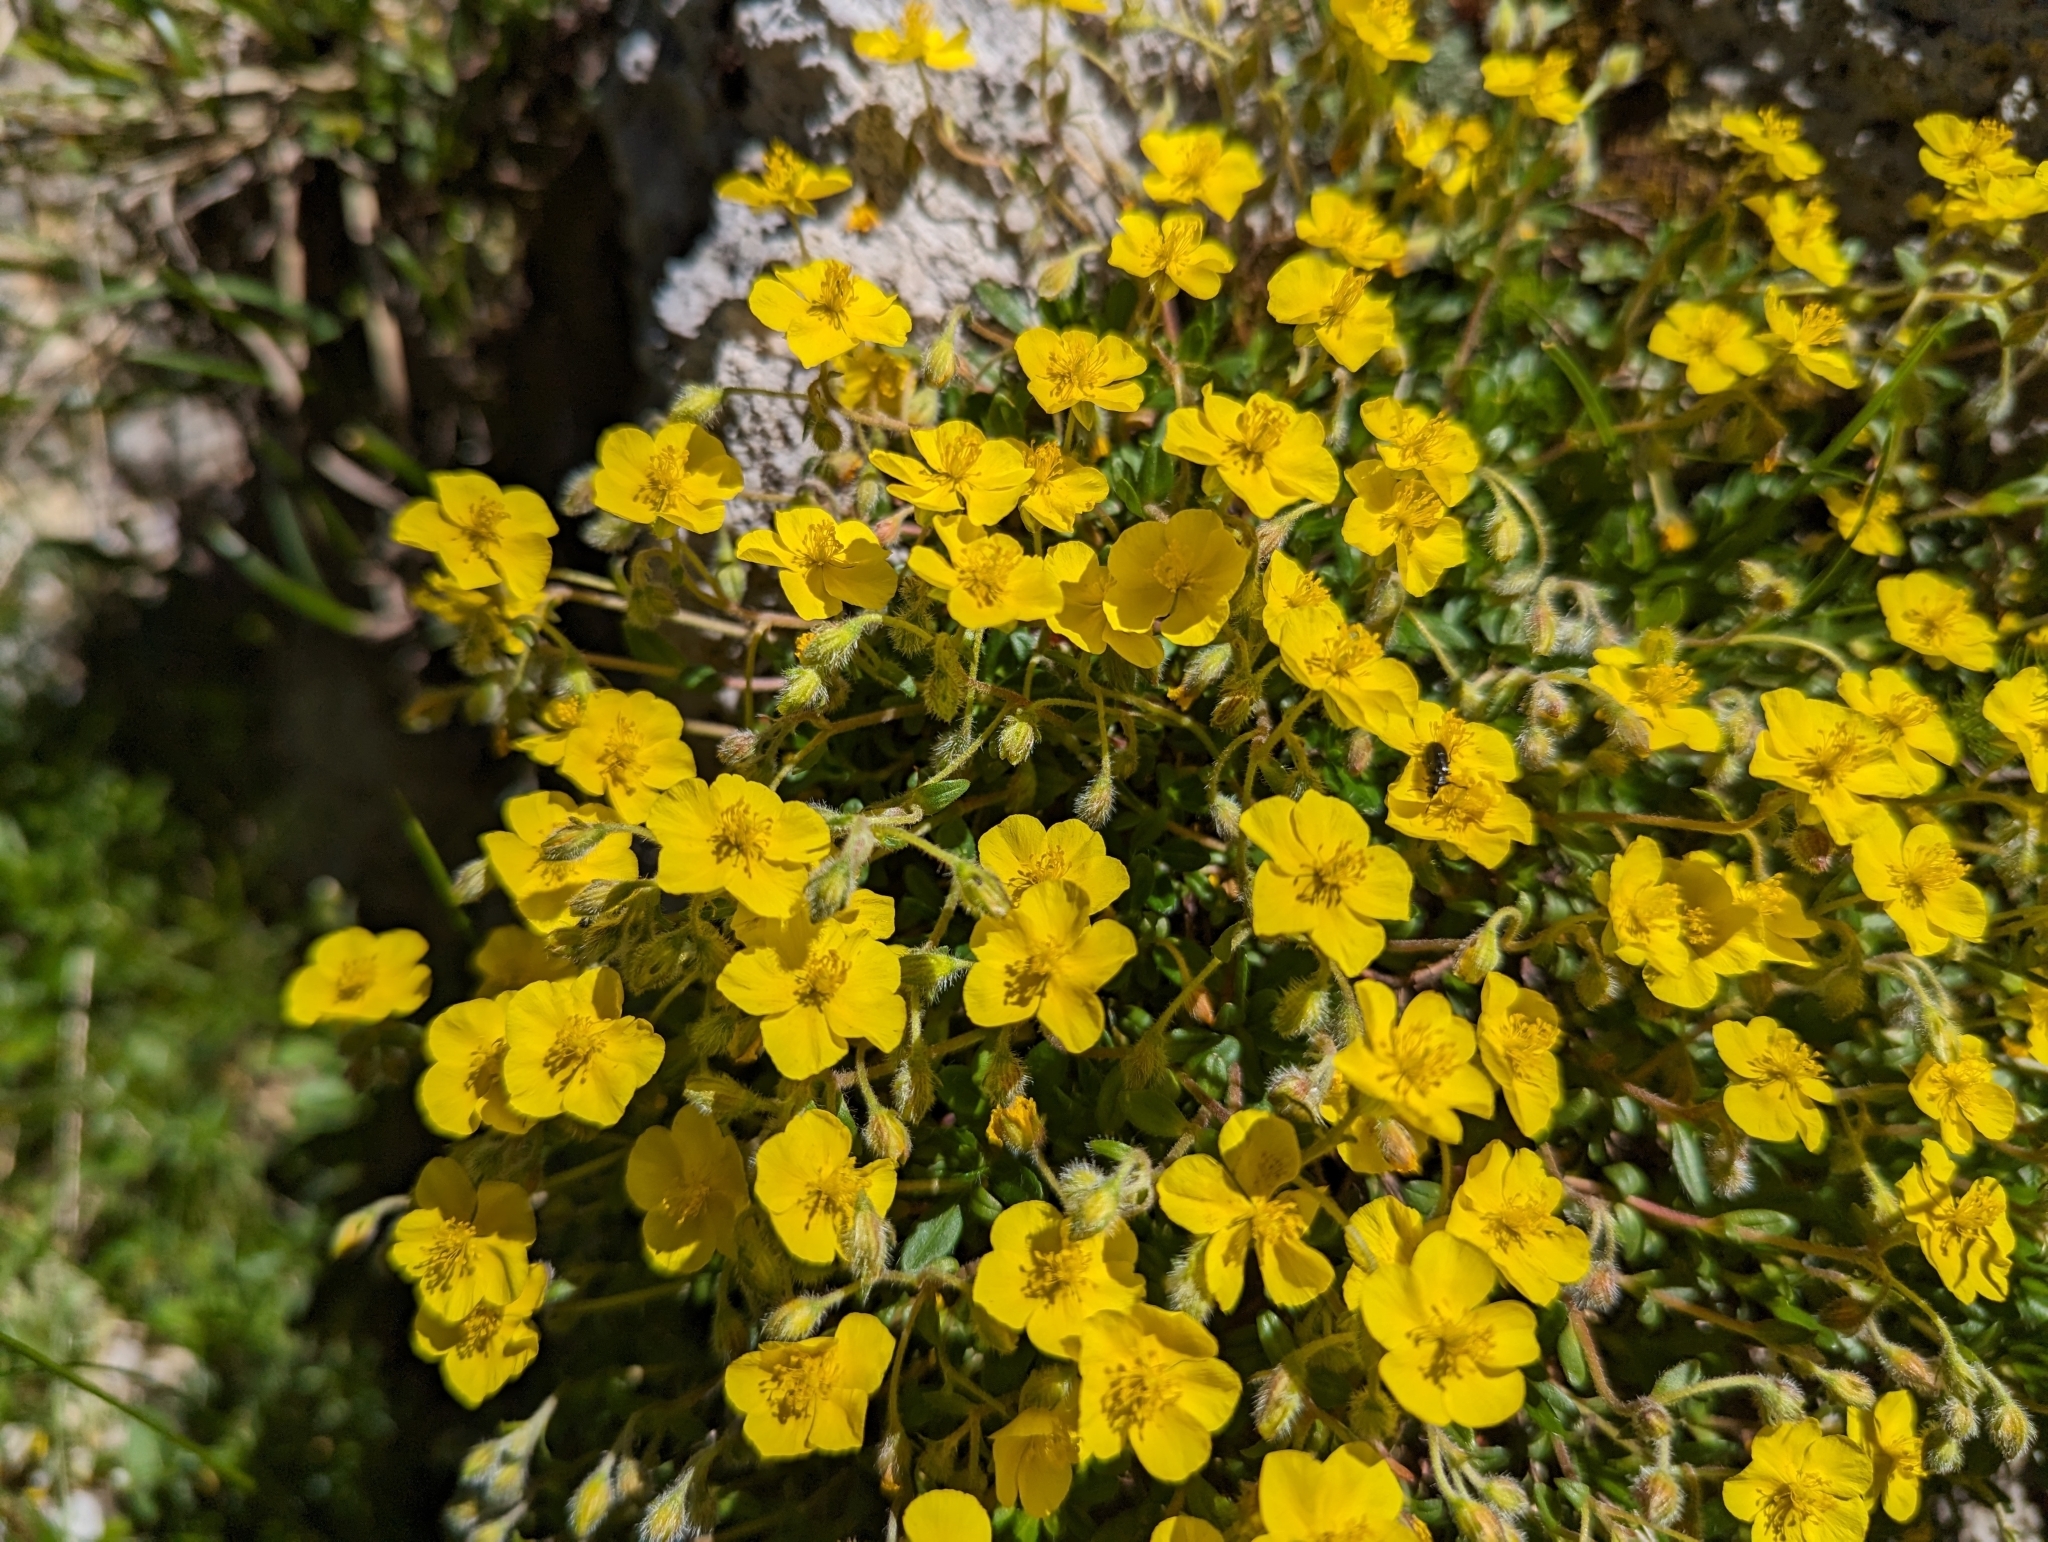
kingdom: Plantae
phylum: Tracheophyta
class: Magnoliopsida
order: Malvales
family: Cistaceae
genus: Helianthemum
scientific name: Helianthemum nummularium
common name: Common rock-rose
